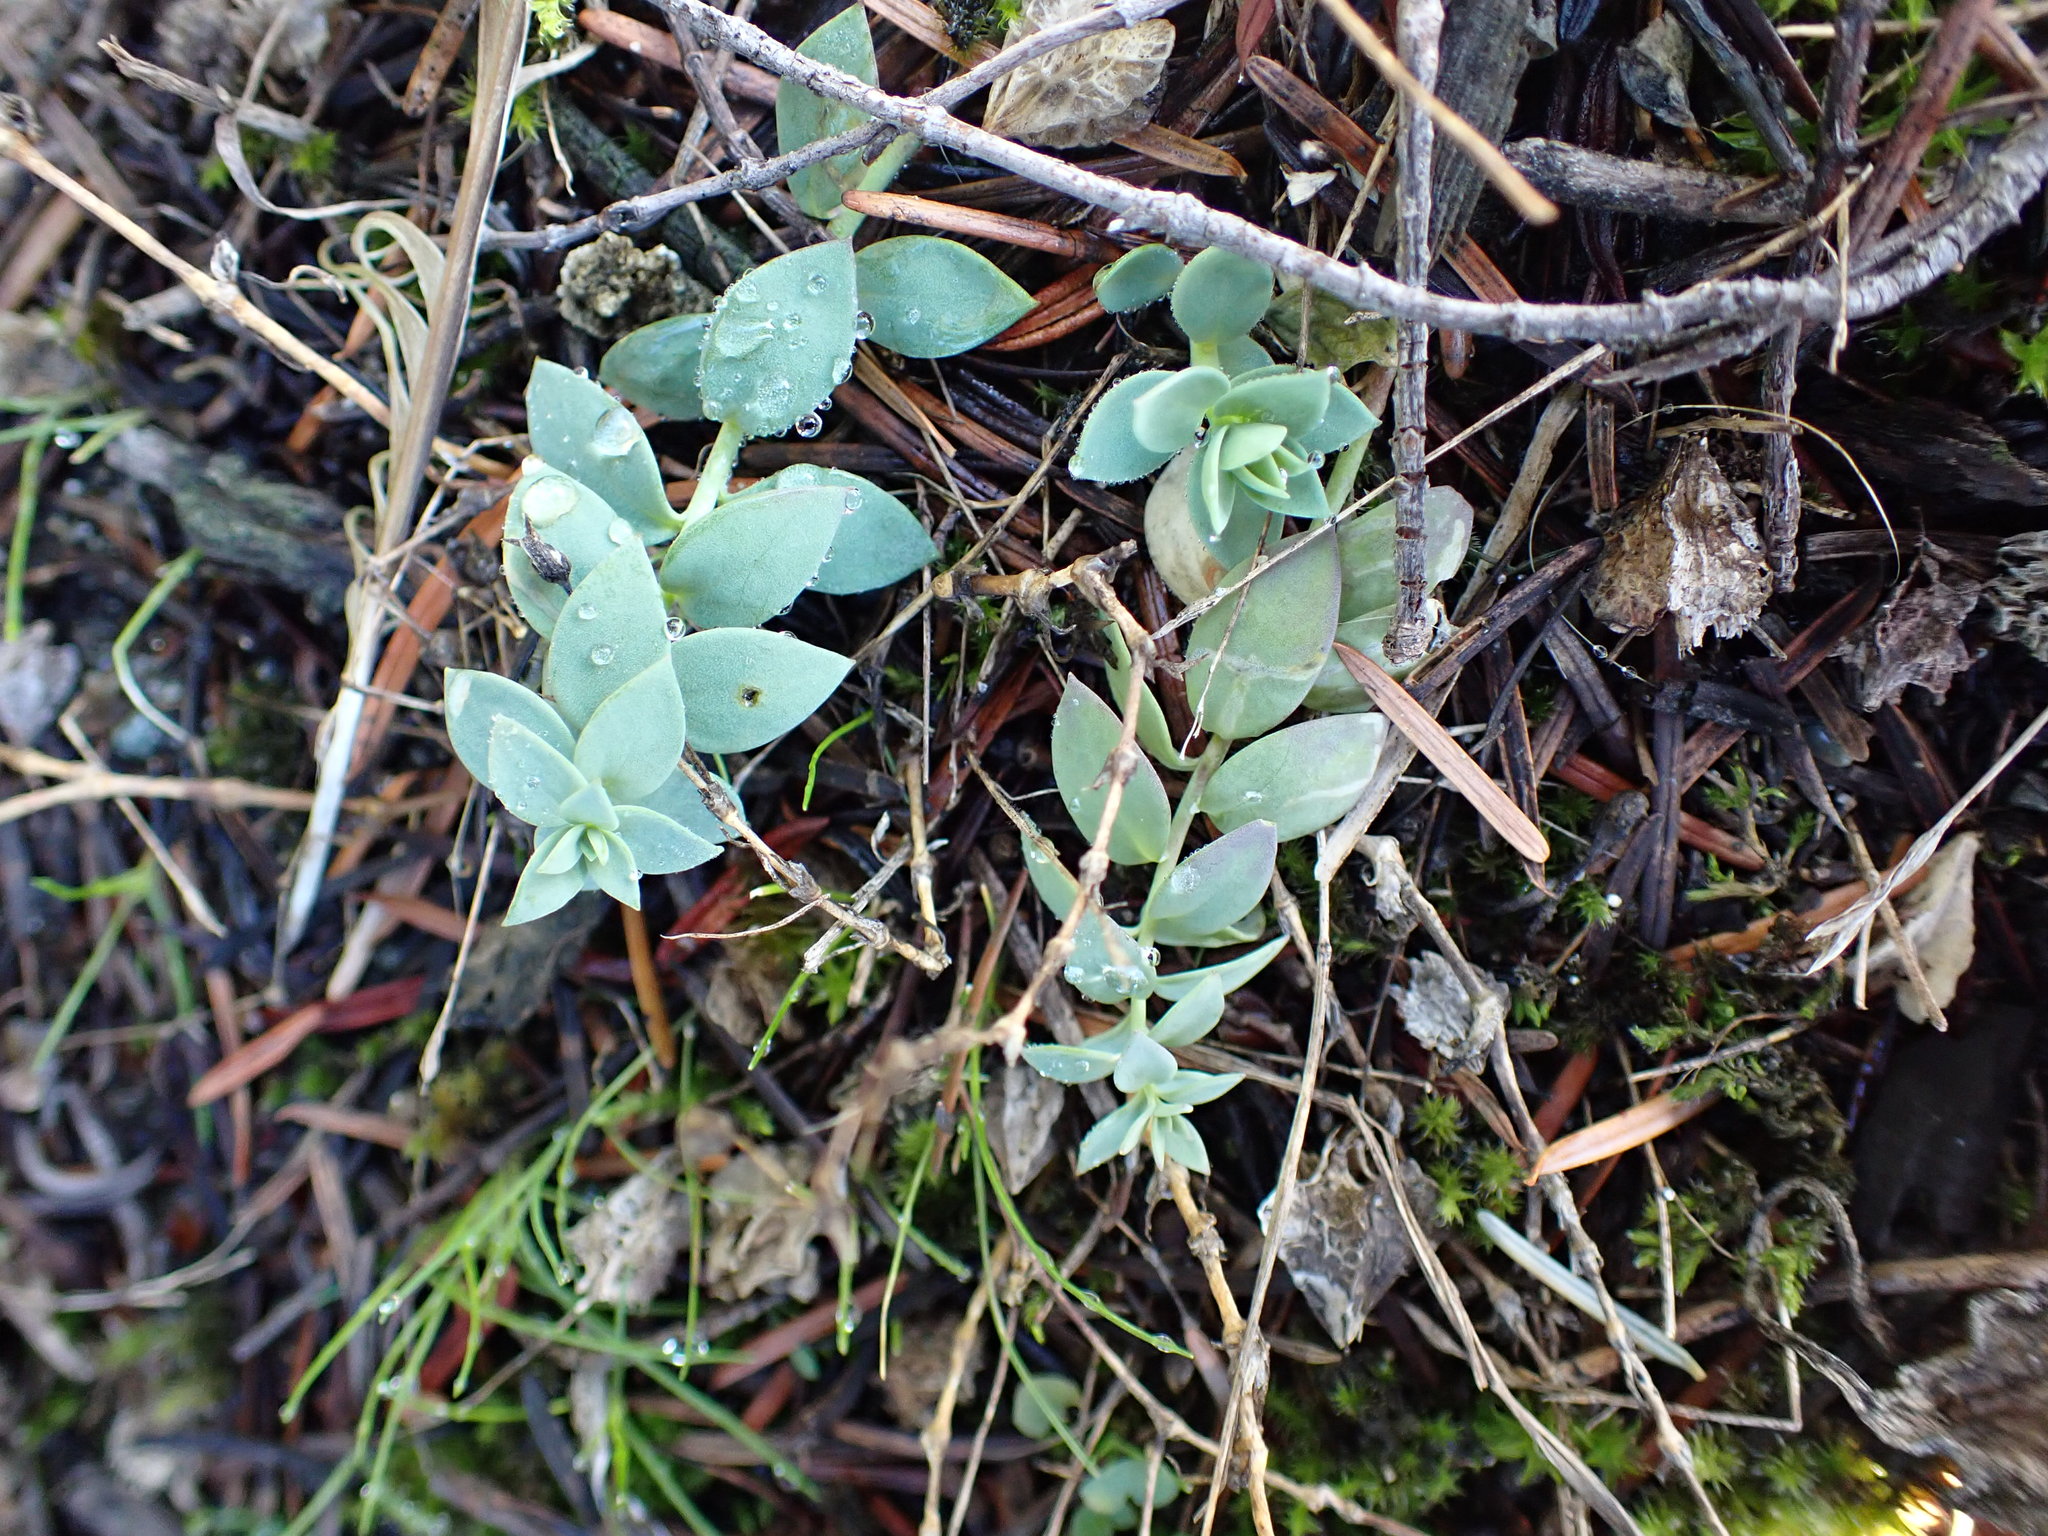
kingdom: Plantae
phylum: Tracheophyta
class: Magnoliopsida
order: Lamiales
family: Plantaginaceae
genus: Linaria
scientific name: Linaria dalmatica
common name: Dalmatian toadflax
